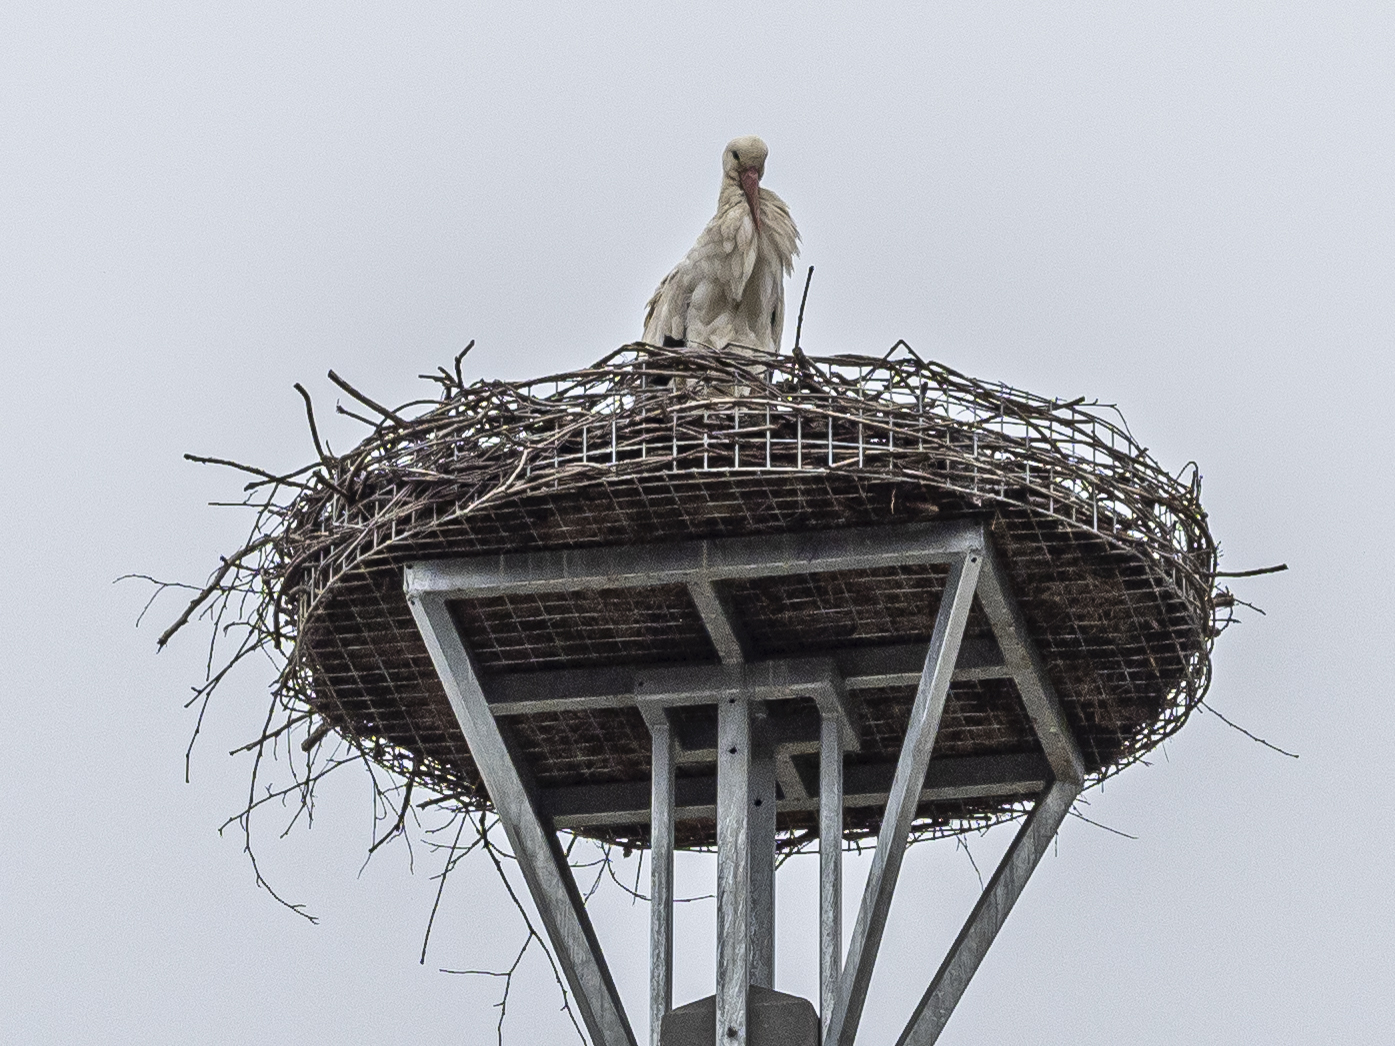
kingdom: Animalia
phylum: Chordata
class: Aves
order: Ciconiiformes
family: Ciconiidae
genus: Ciconia
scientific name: Ciconia ciconia
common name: White stork
